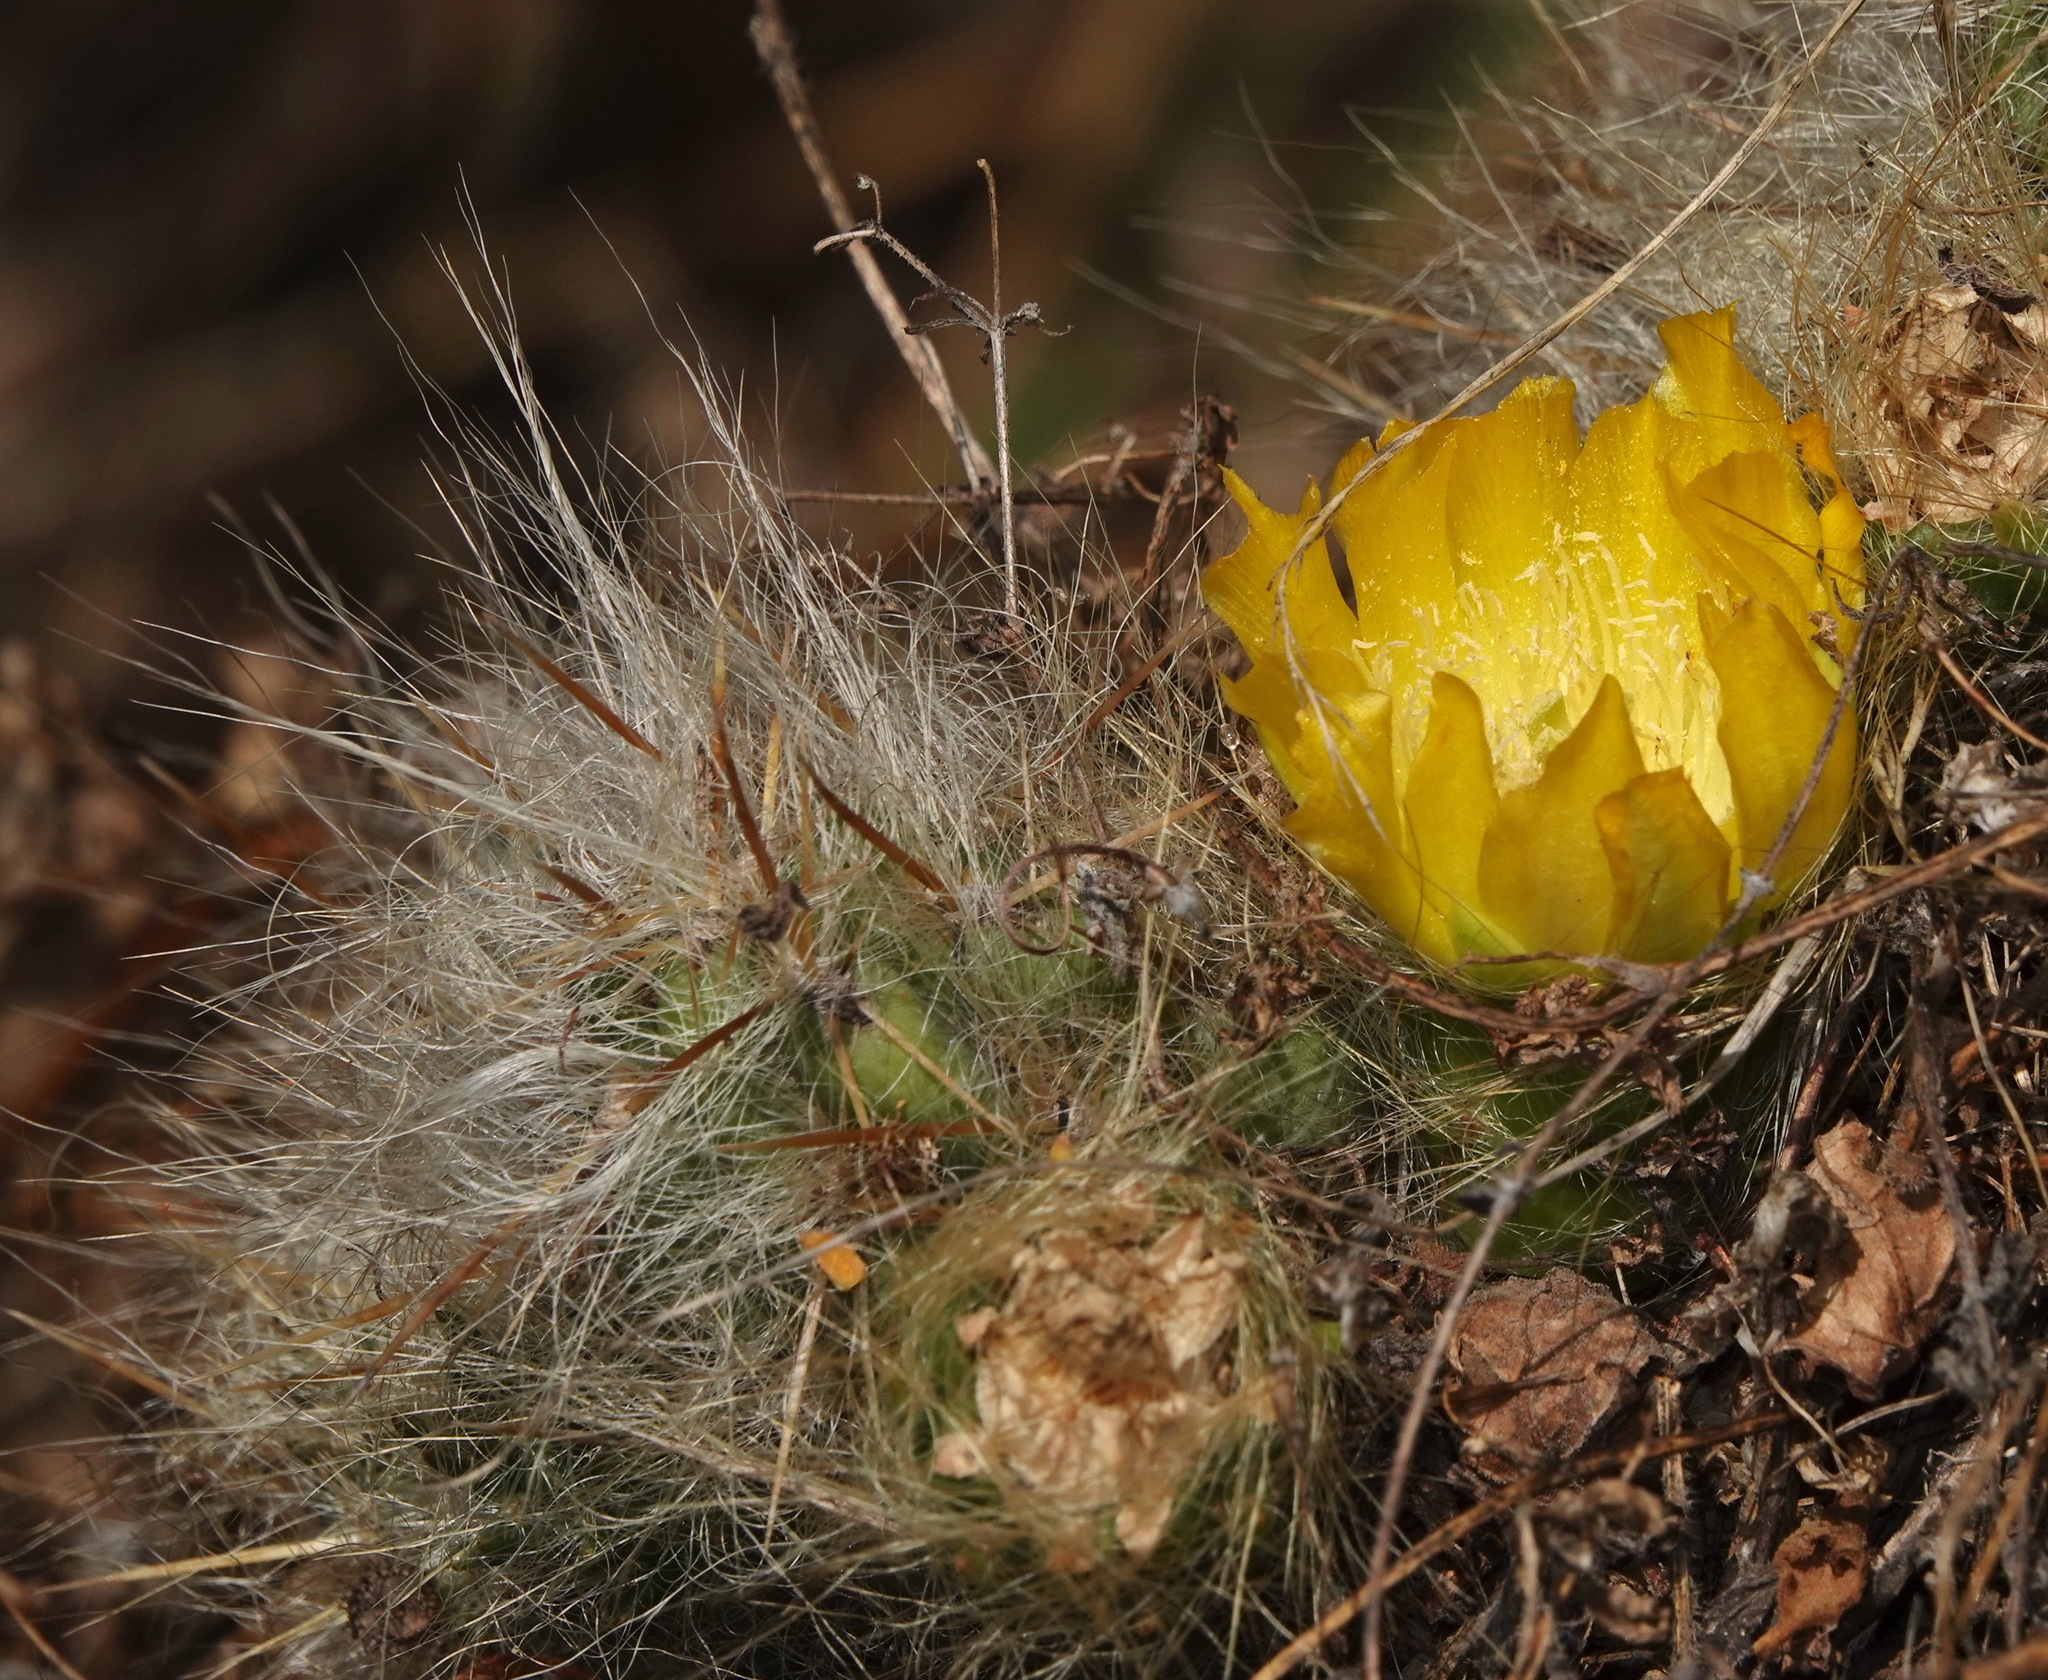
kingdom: Plantae
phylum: Tracheophyta
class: Magnoliopsida
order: Caryophyllales
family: Cactaceae
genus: Austrocylindropuntia
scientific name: Austrocylindropuntia floccosa
